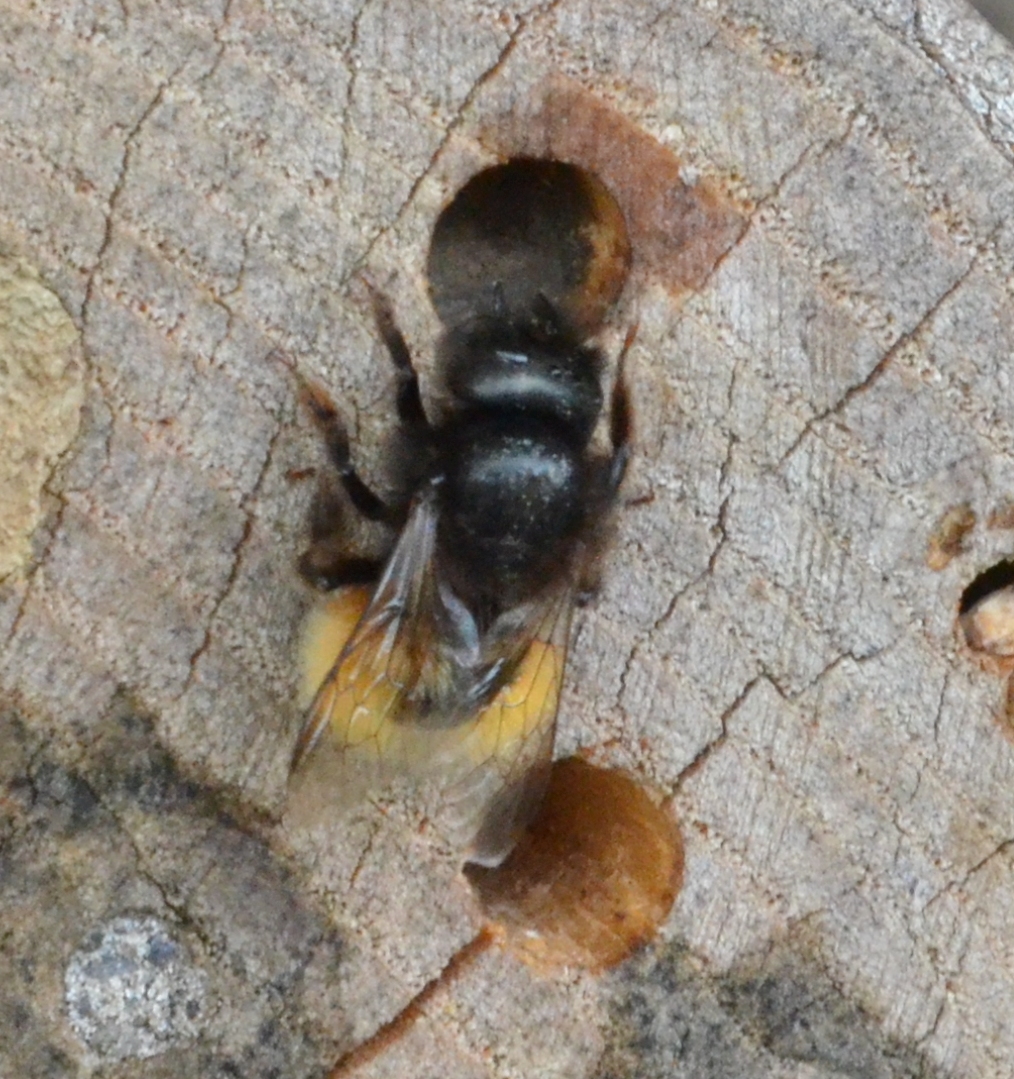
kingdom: Animalia
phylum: Arthropoda
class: Insecta
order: Hymenoptera
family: Megachilidae
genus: Osmia
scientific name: Osmia cornuta
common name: Mason bee
